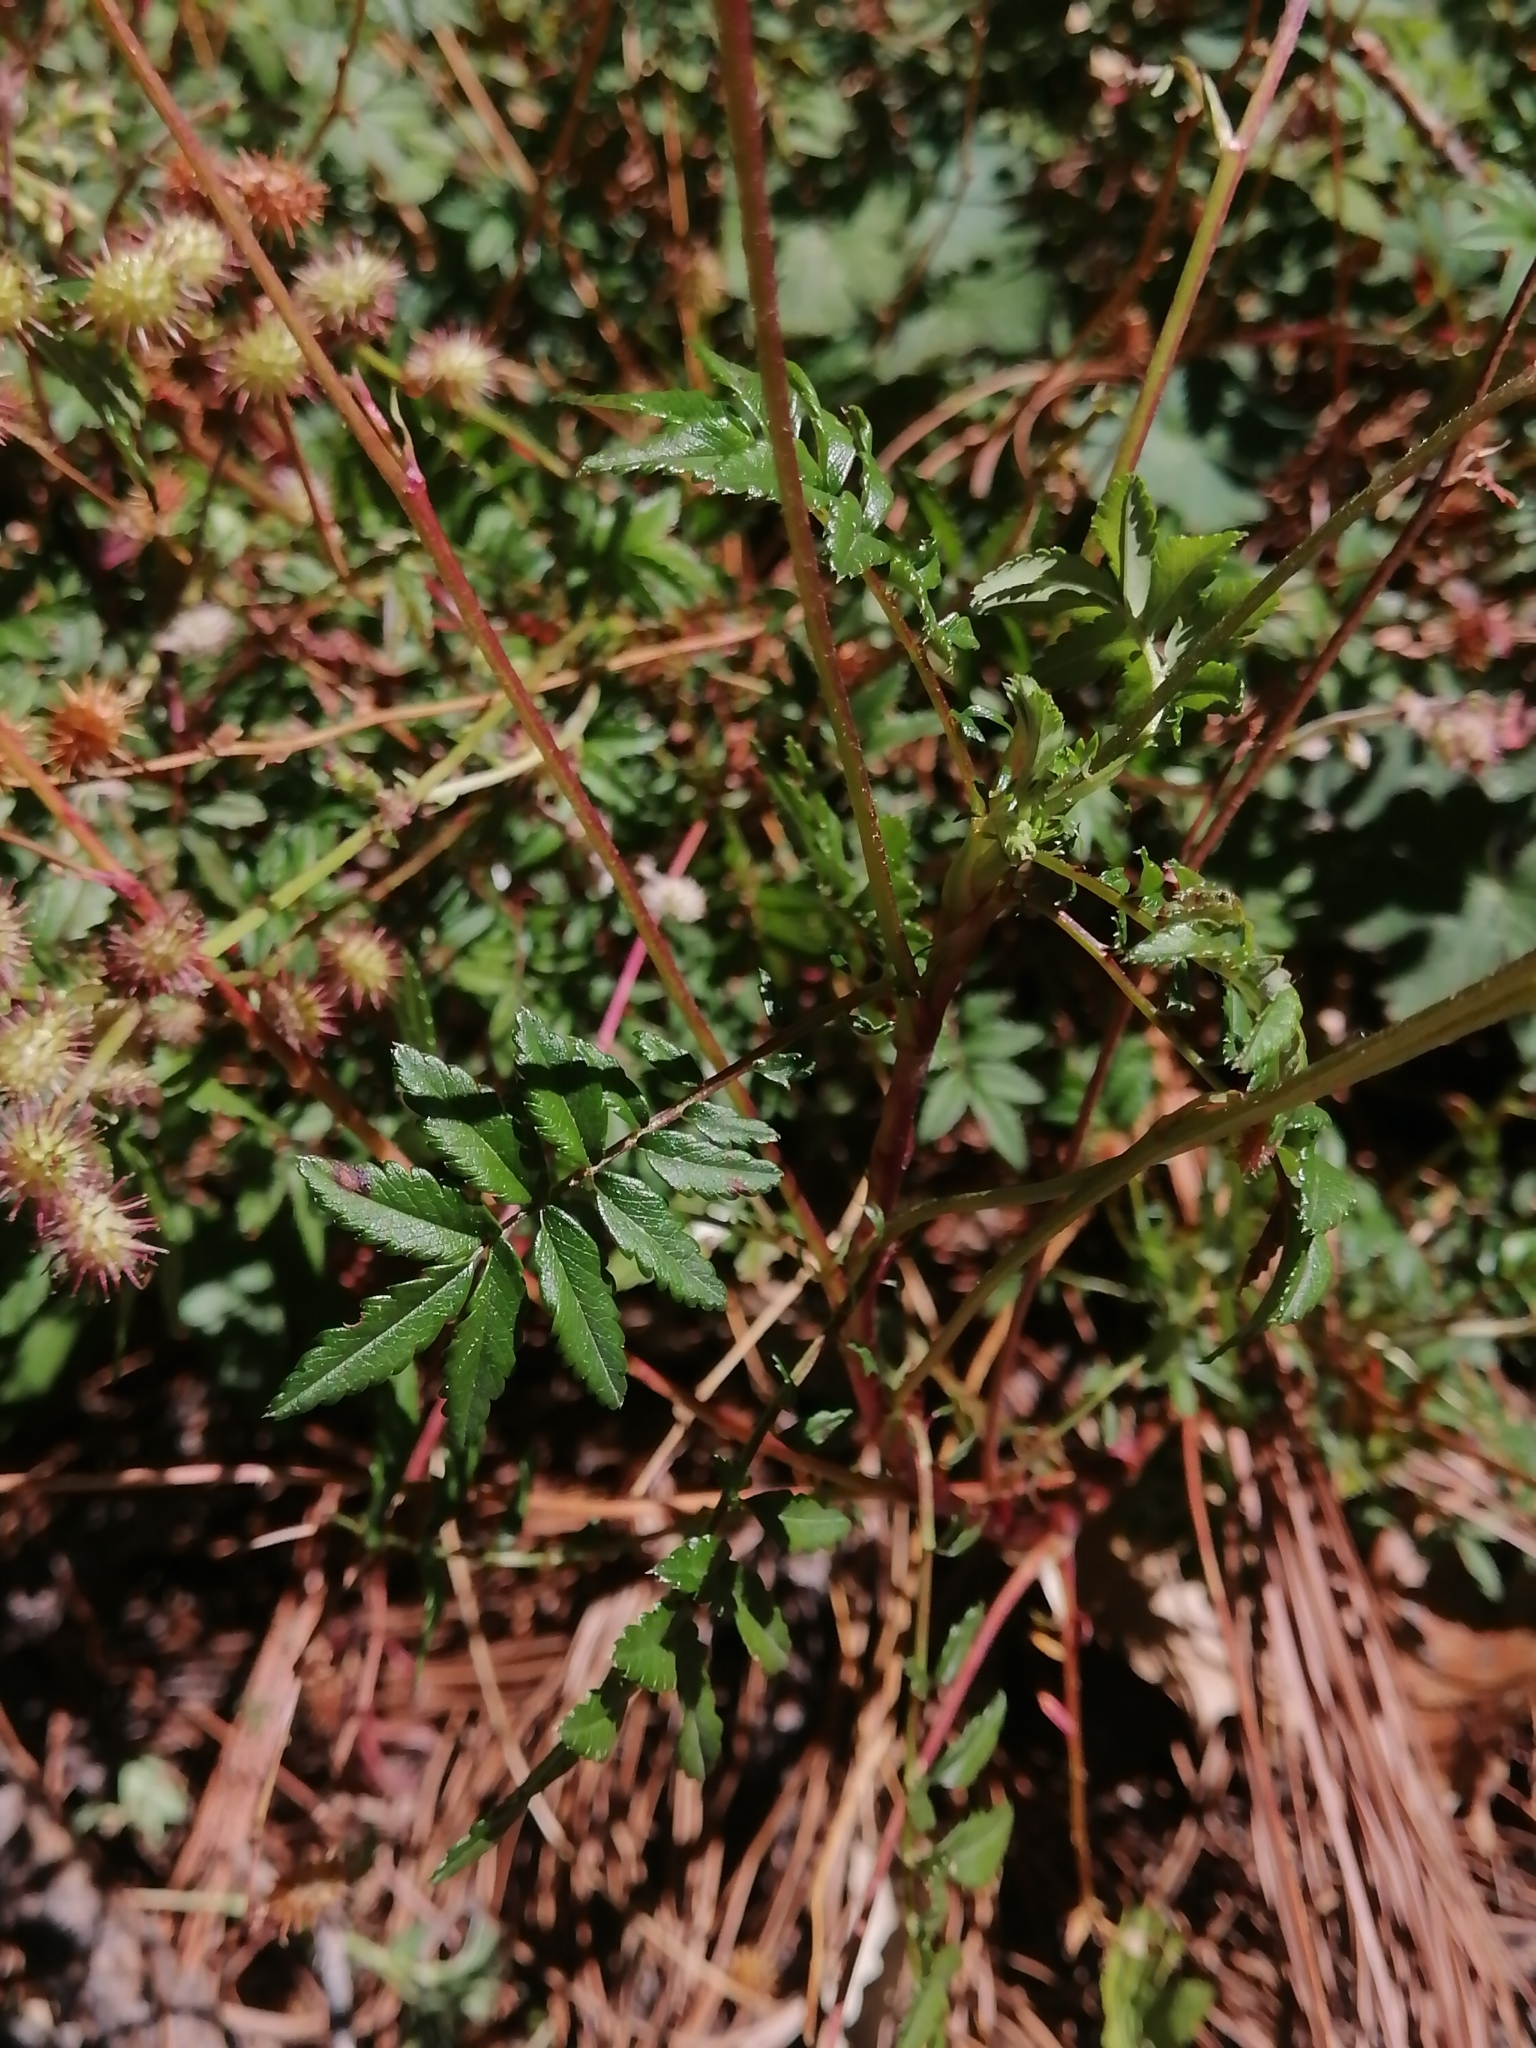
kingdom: Plantae
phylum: Tracheophyta
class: Magnoliopsida
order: Rosales
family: Rosaceae
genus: Acaena
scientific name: Acaena elongata
